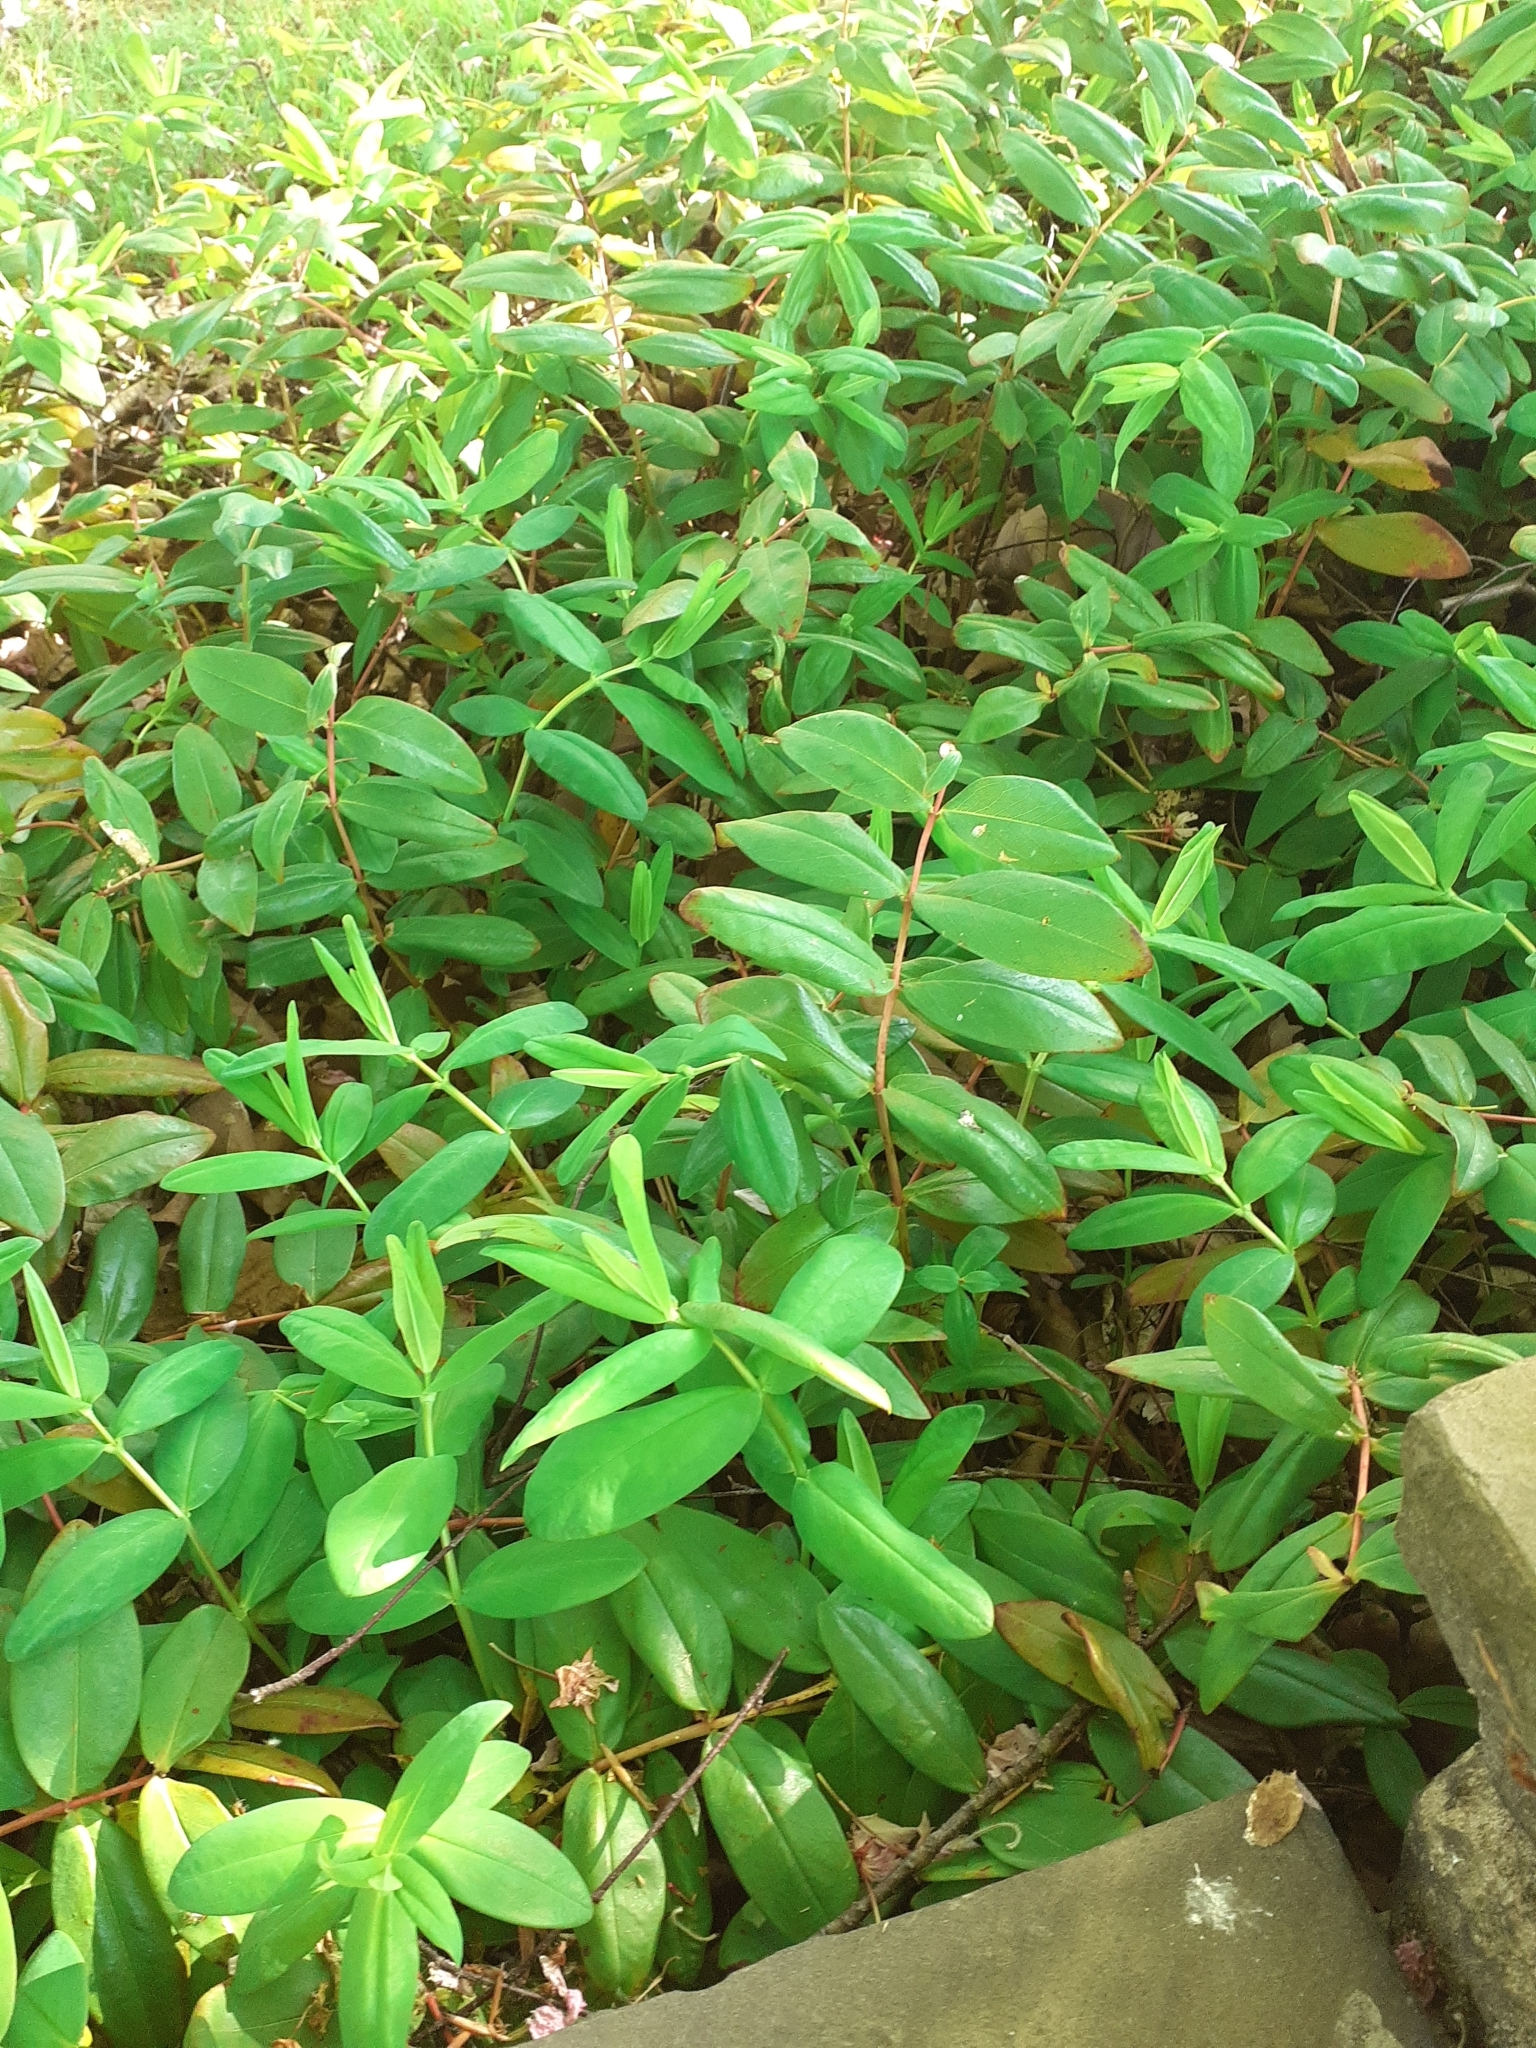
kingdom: Plantae
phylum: Tracheophyta
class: Magnoliopsida
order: Malpighiales
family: Hypericaceae
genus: Hypericum
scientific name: Hypericum calycinum
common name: Rose-of-sharon
